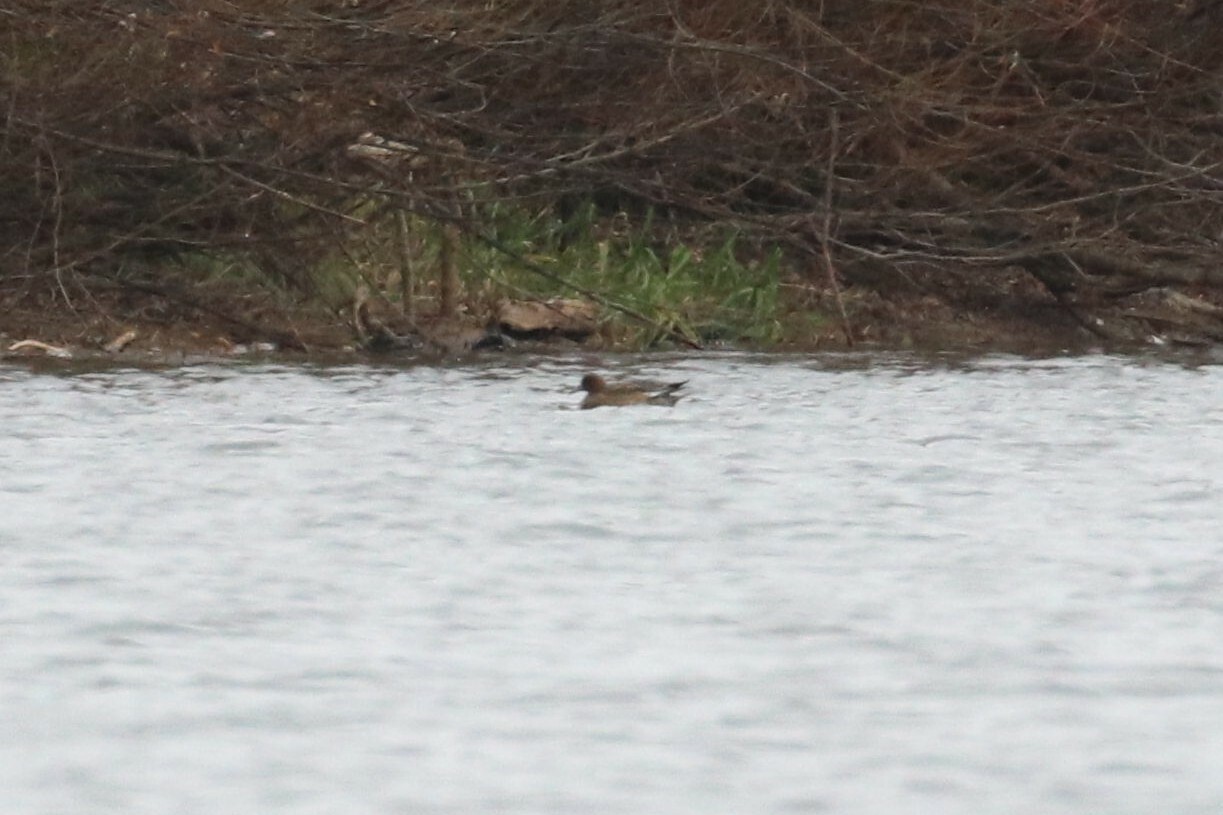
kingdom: Animalia
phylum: Chordata
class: Aves
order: Anseriformes
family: Anatidae
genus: Mareca
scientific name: Mareca penelope
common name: Eurasian wigeon
